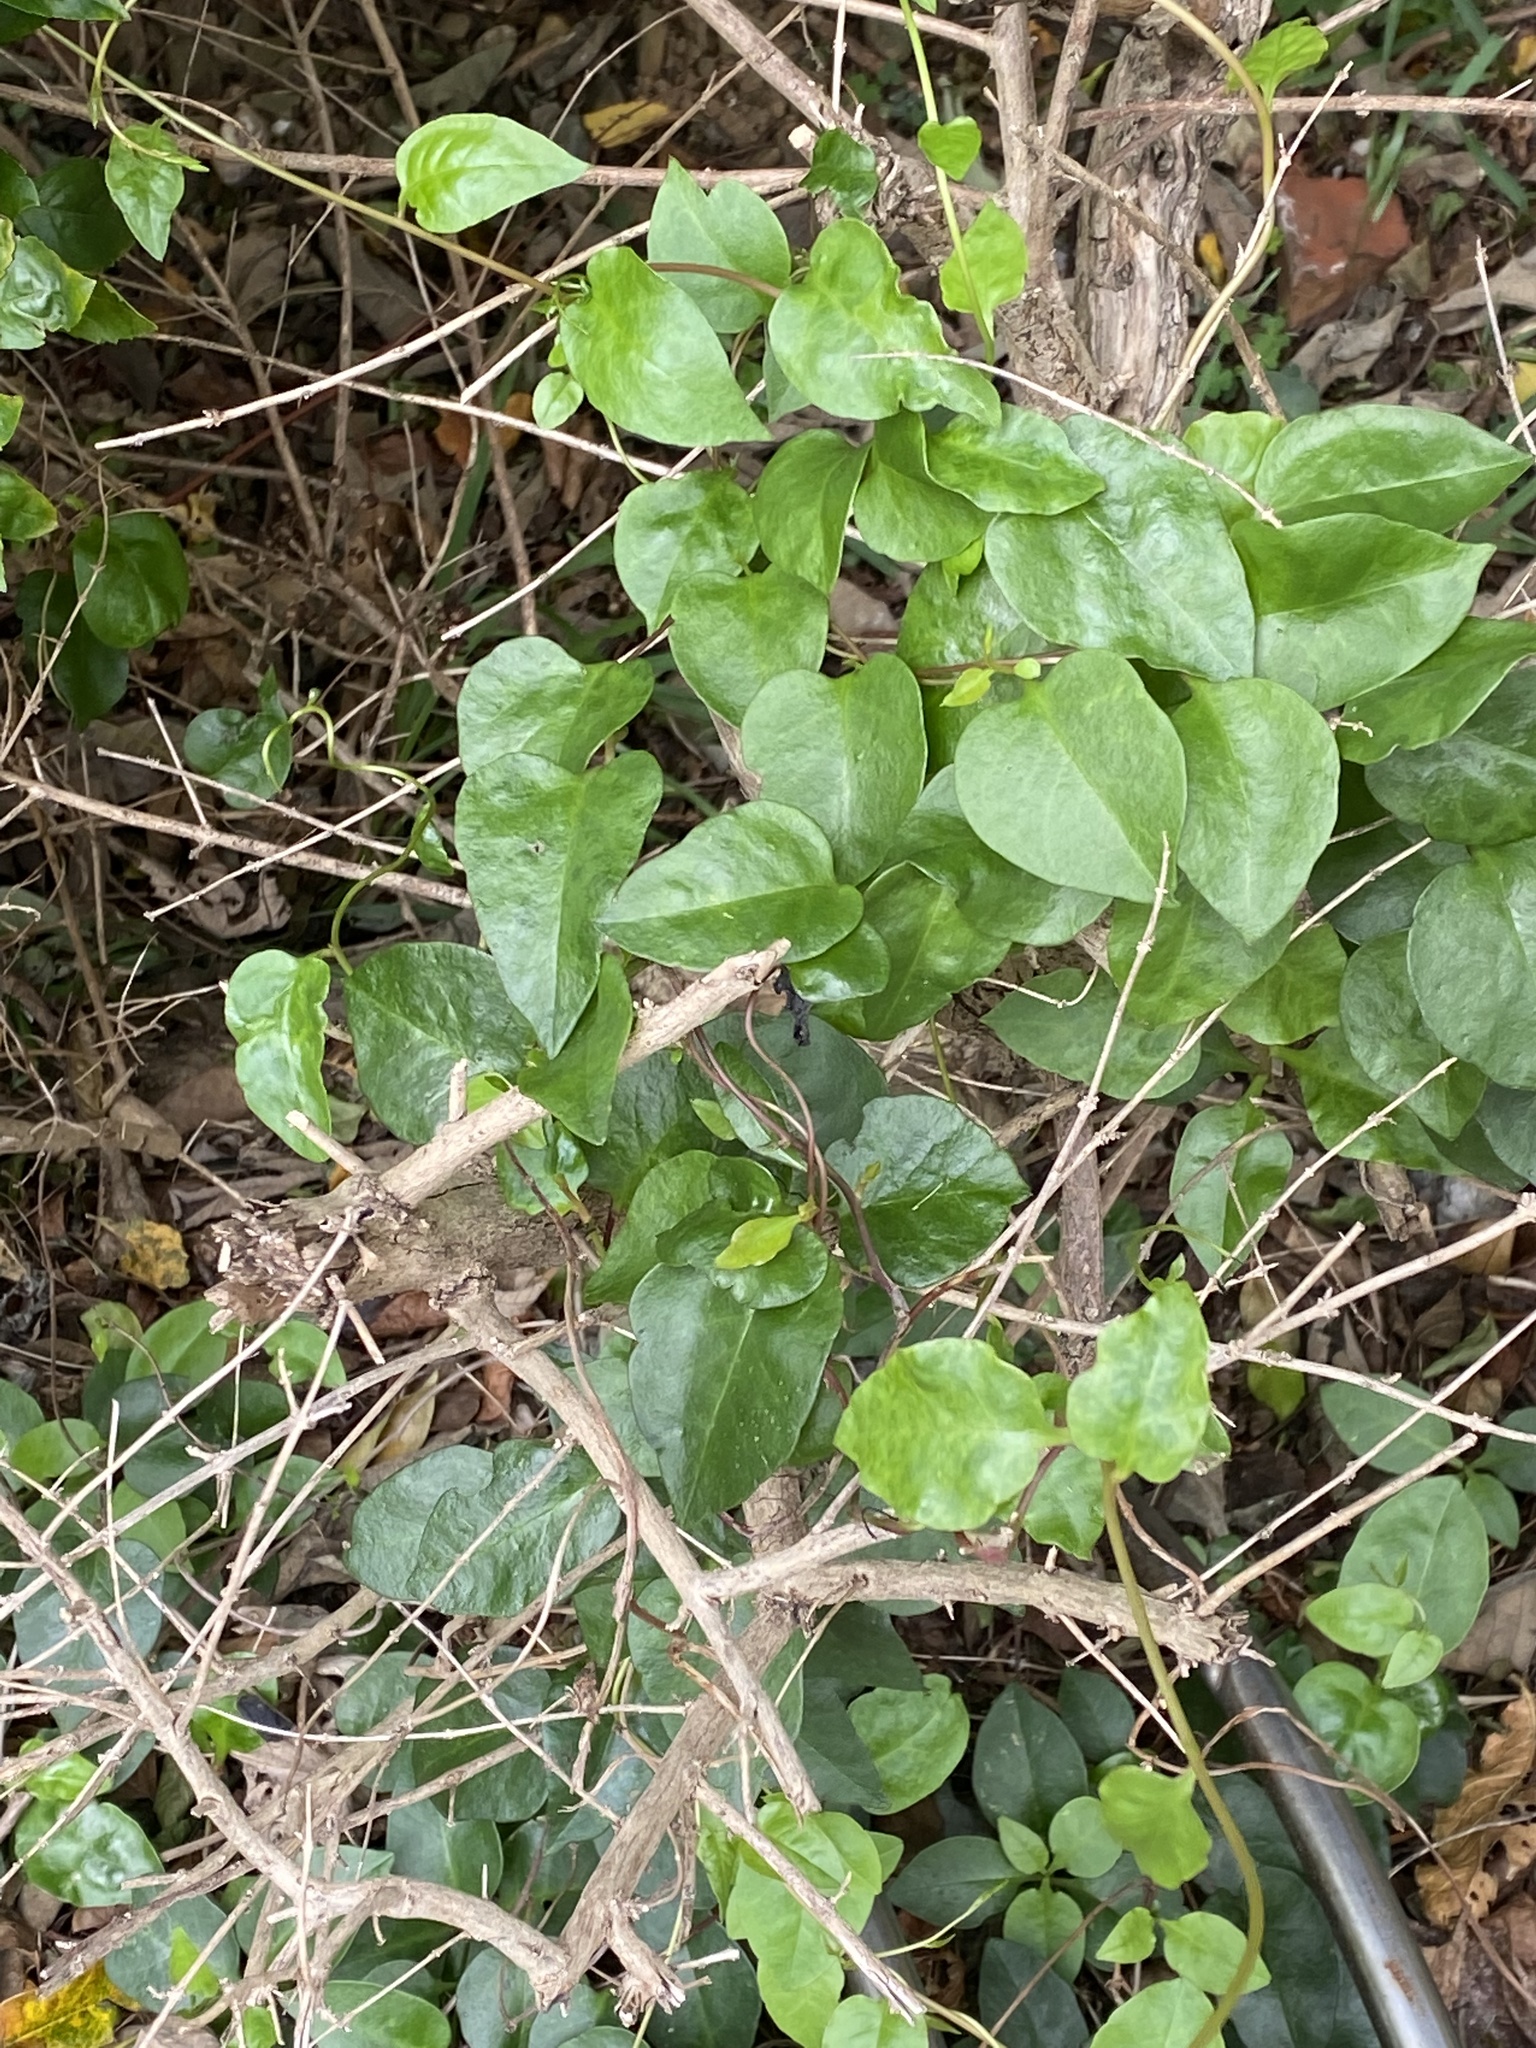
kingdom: Plantae
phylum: Tracheophyta
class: Magnoliopsida
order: Caryophyllales
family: Basellaceae
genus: Anredera
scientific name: Anredera cordifolia
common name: Heartleaf madeiravine
